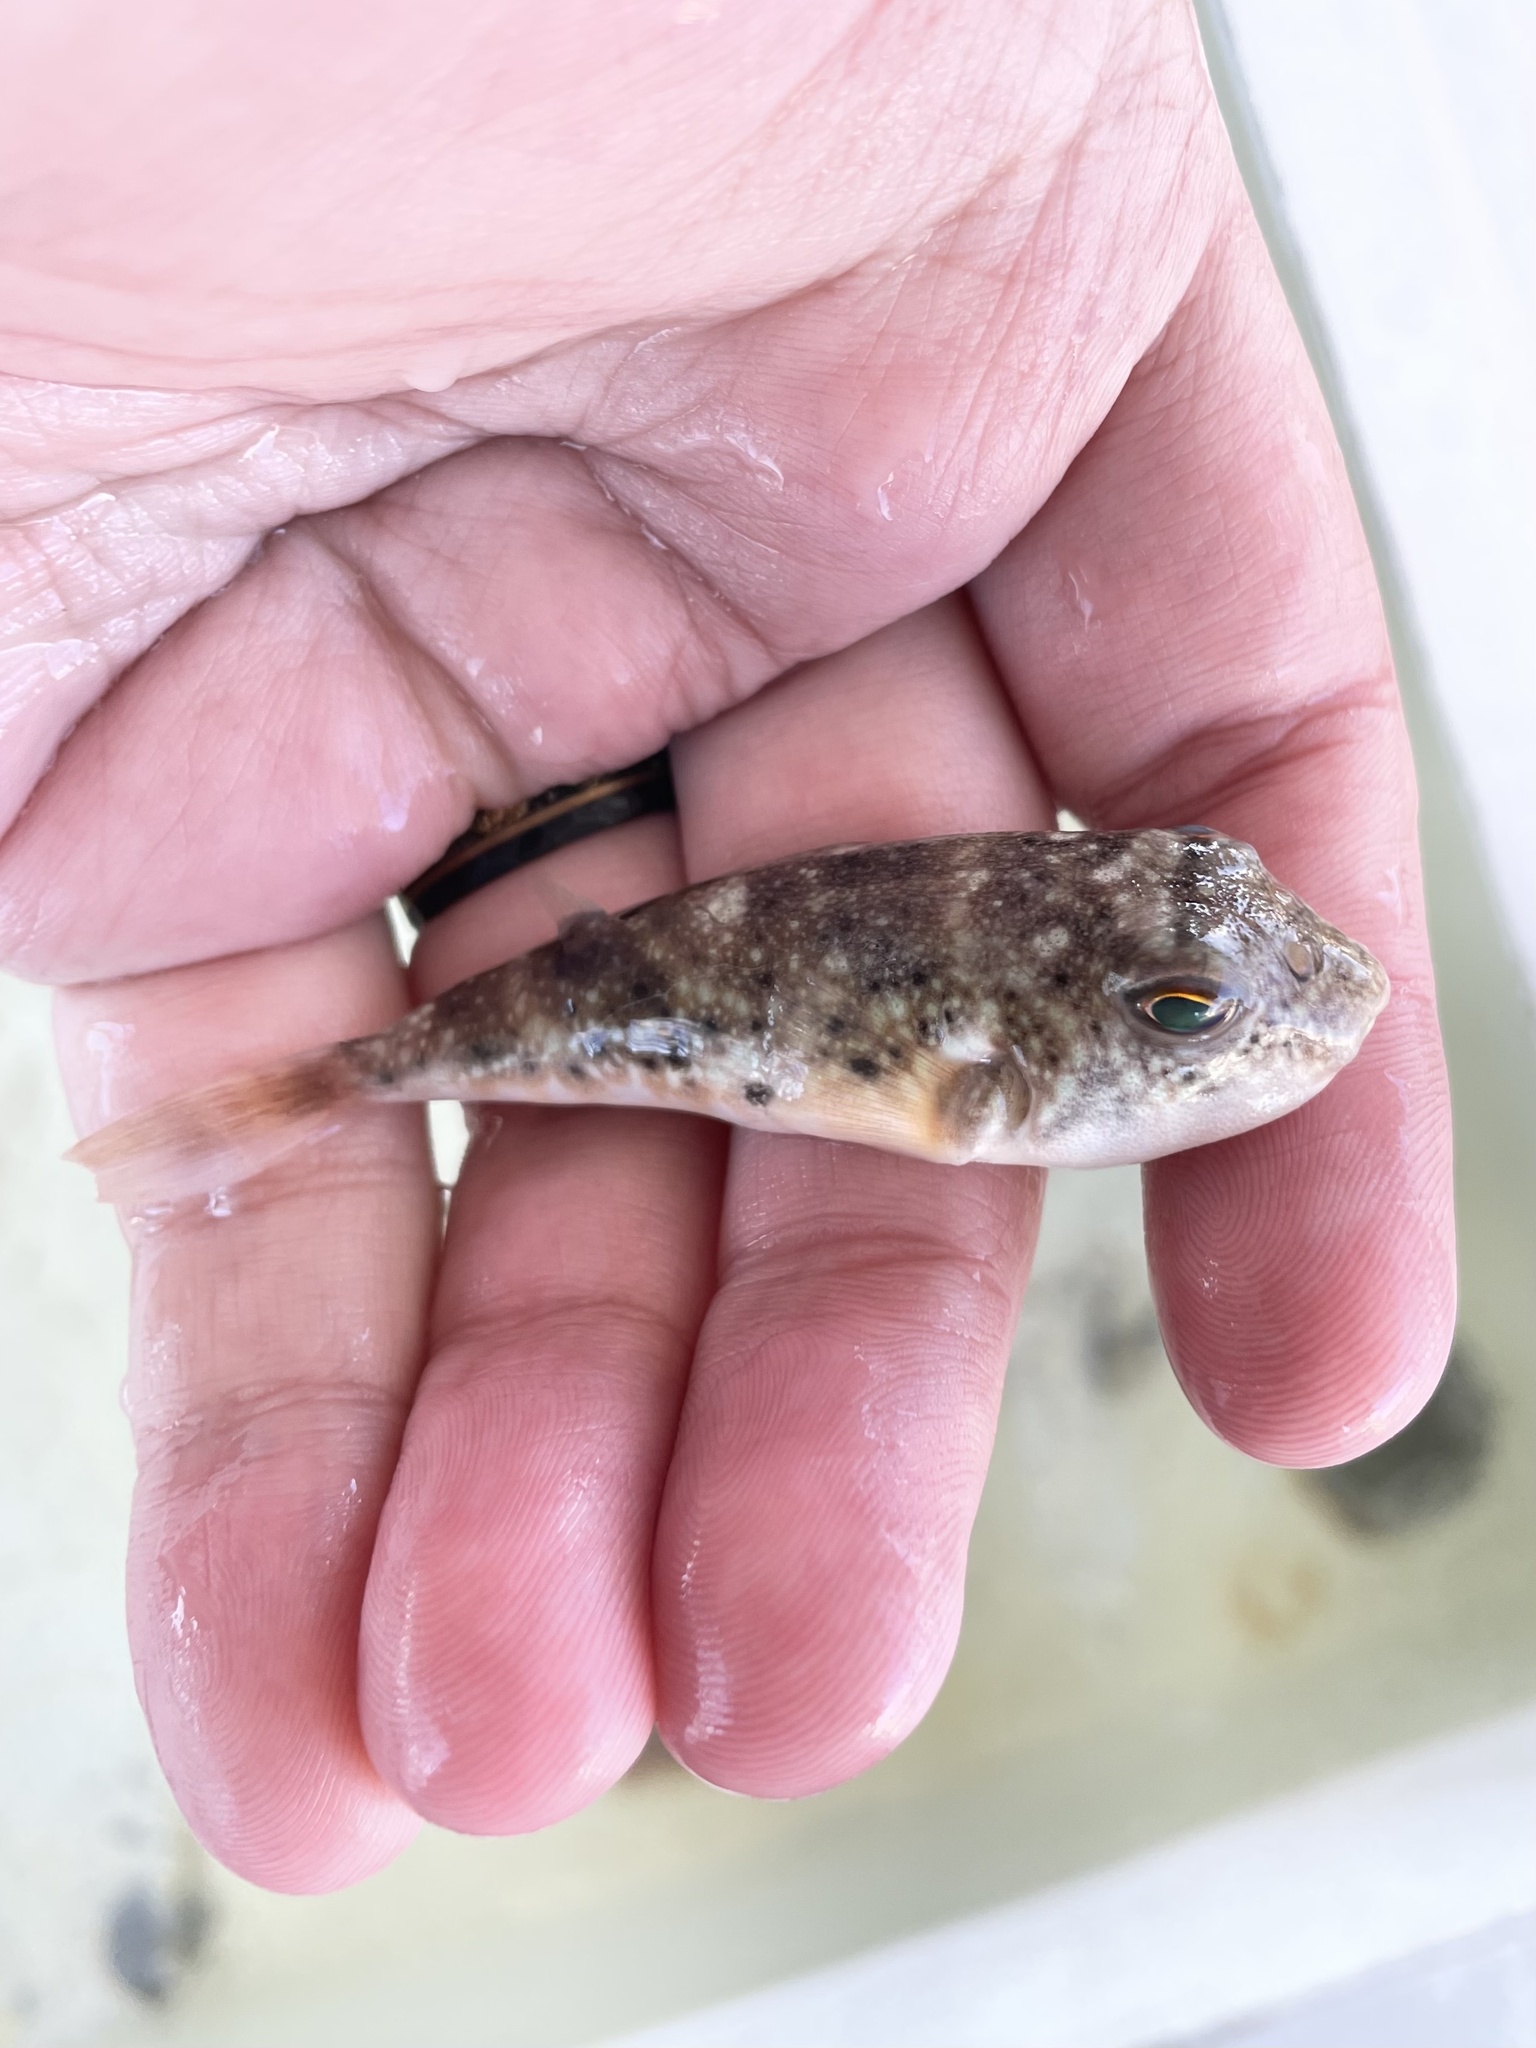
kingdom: Animalia
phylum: Chordata
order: Tetraodontiformes
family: Tetraodontidae
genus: Sphoeroides
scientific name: Sphoeroides parvus
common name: Least puffer
